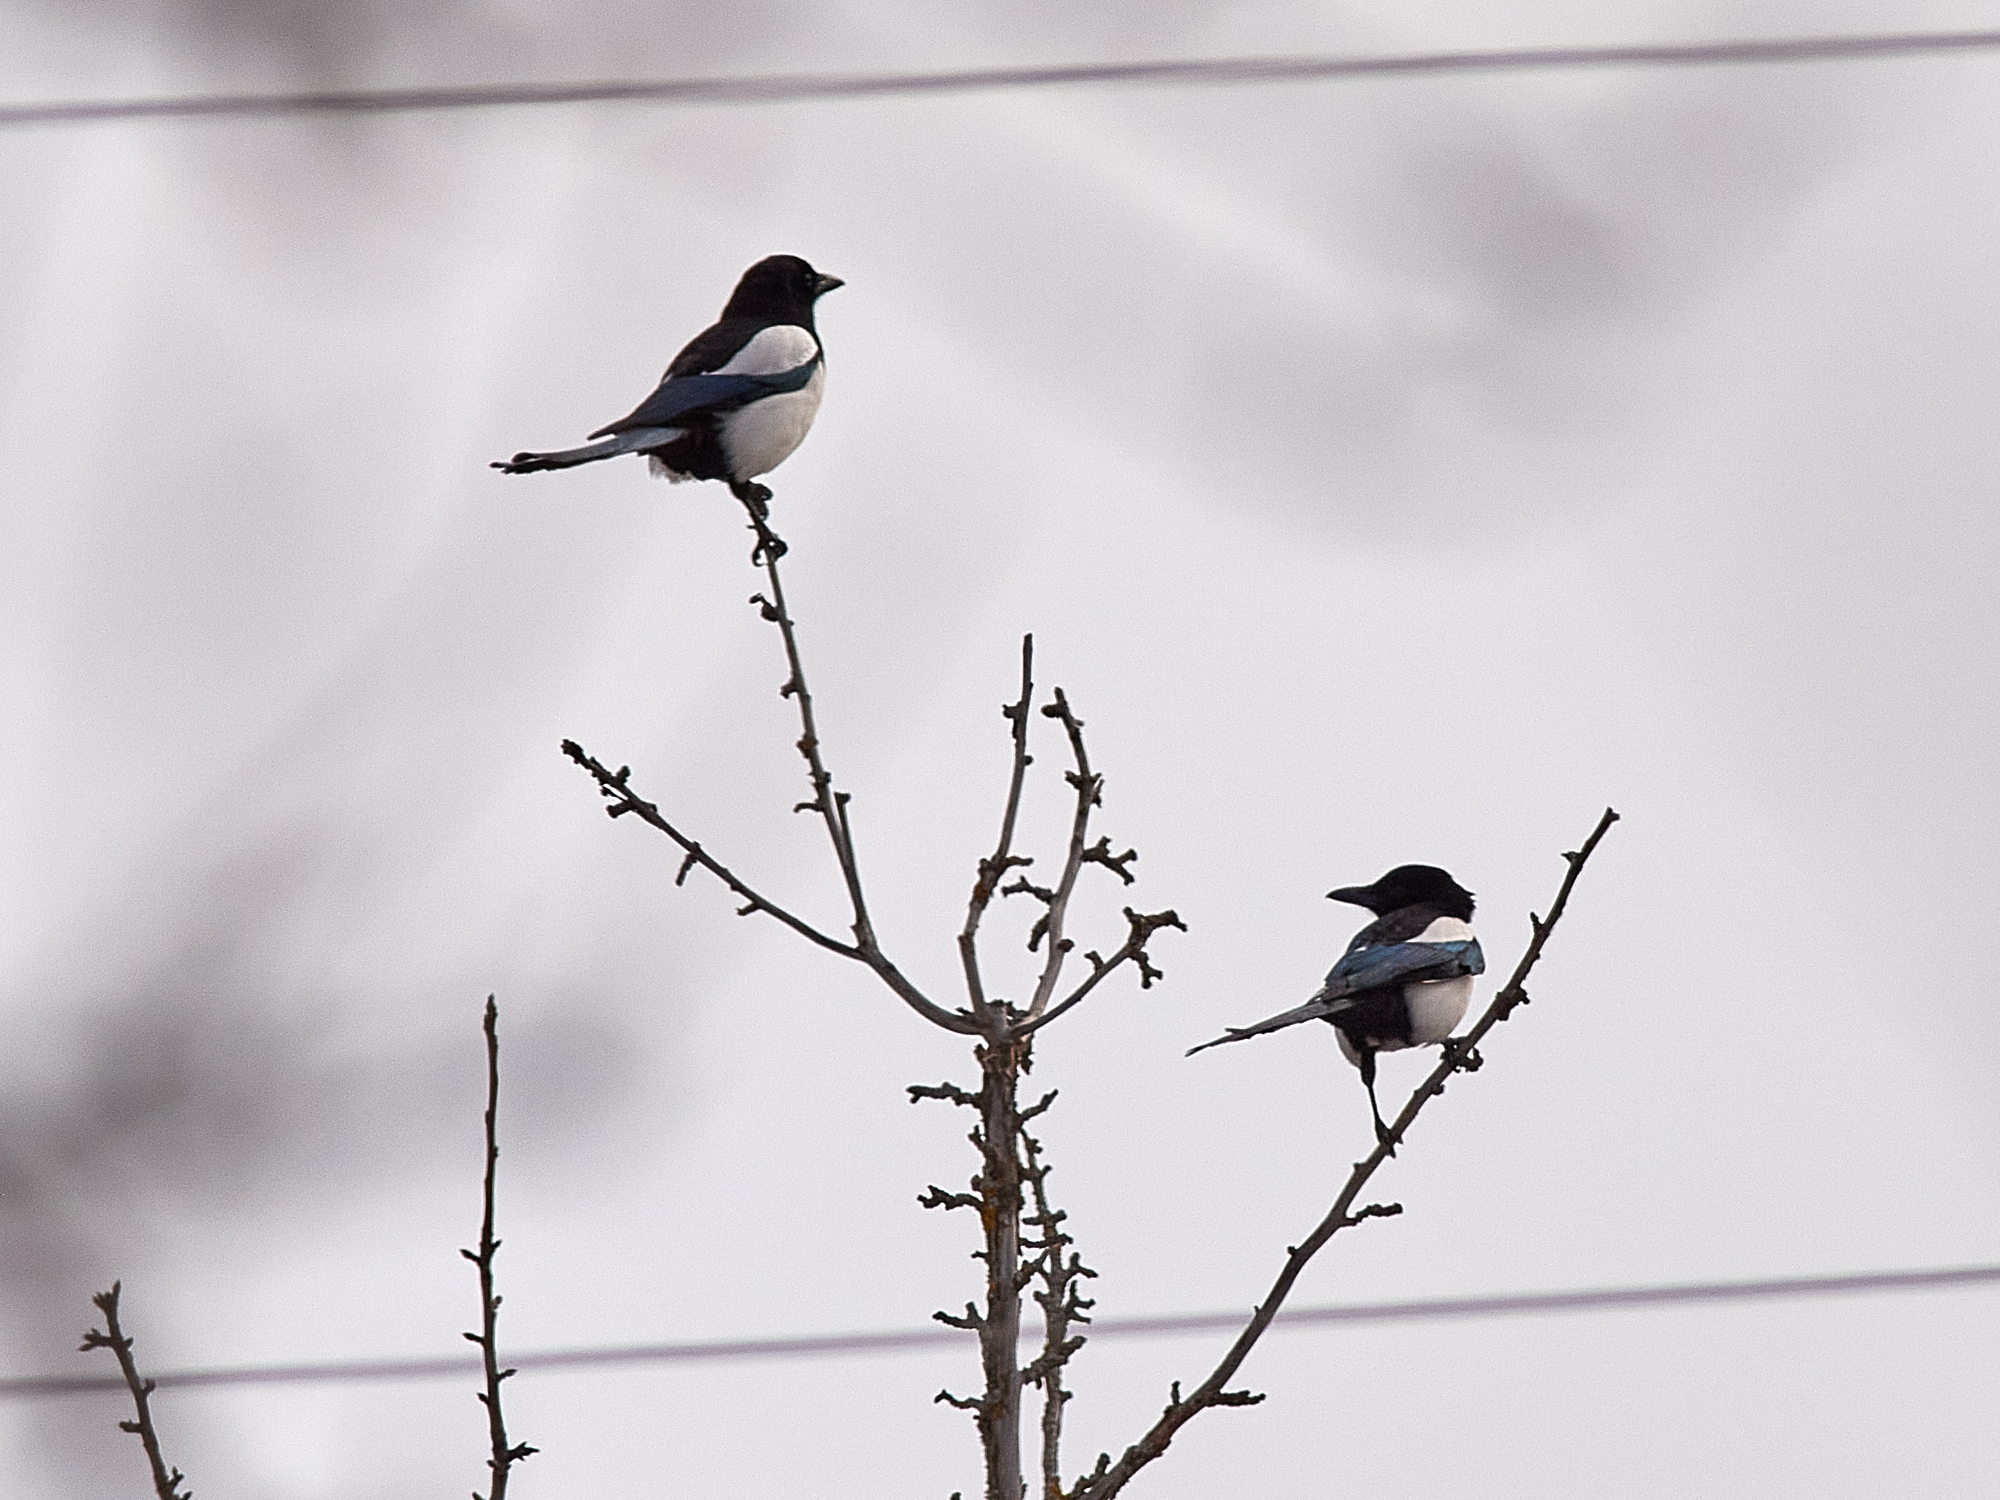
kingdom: Animalia
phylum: Chordata
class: Aves
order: Passeriformes
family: Corvidae
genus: Pica
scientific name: Pica pica
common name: Eurasian magpie
